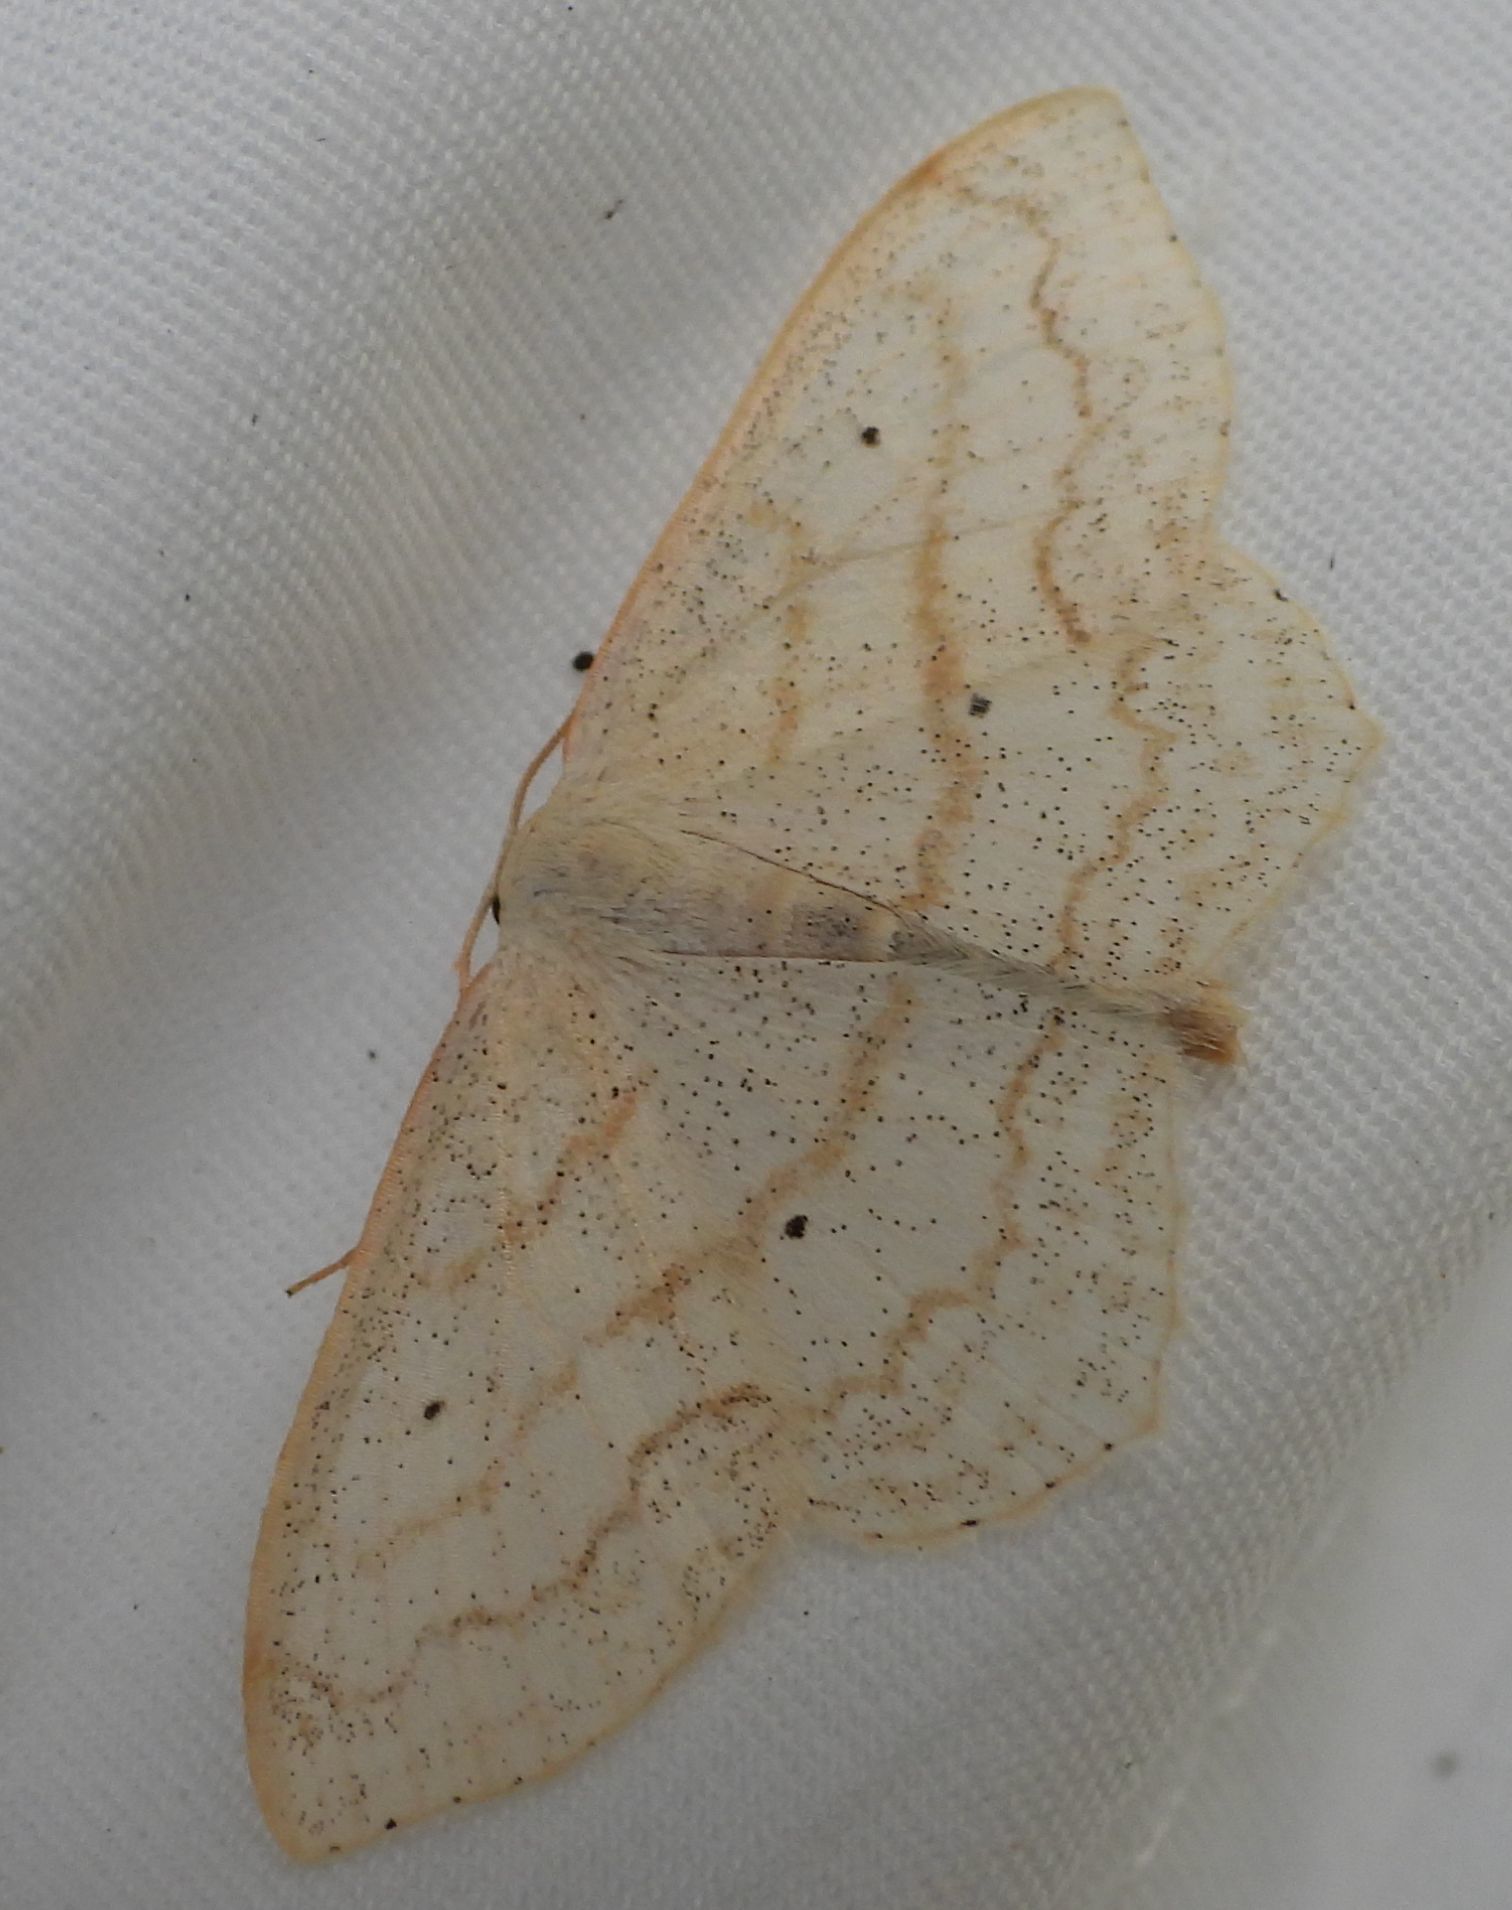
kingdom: Animalia
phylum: Arthropoda
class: Insecta
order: Lepidoptera
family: Geometridae
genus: Scopula
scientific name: Scopula limboundata
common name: Large lace border
